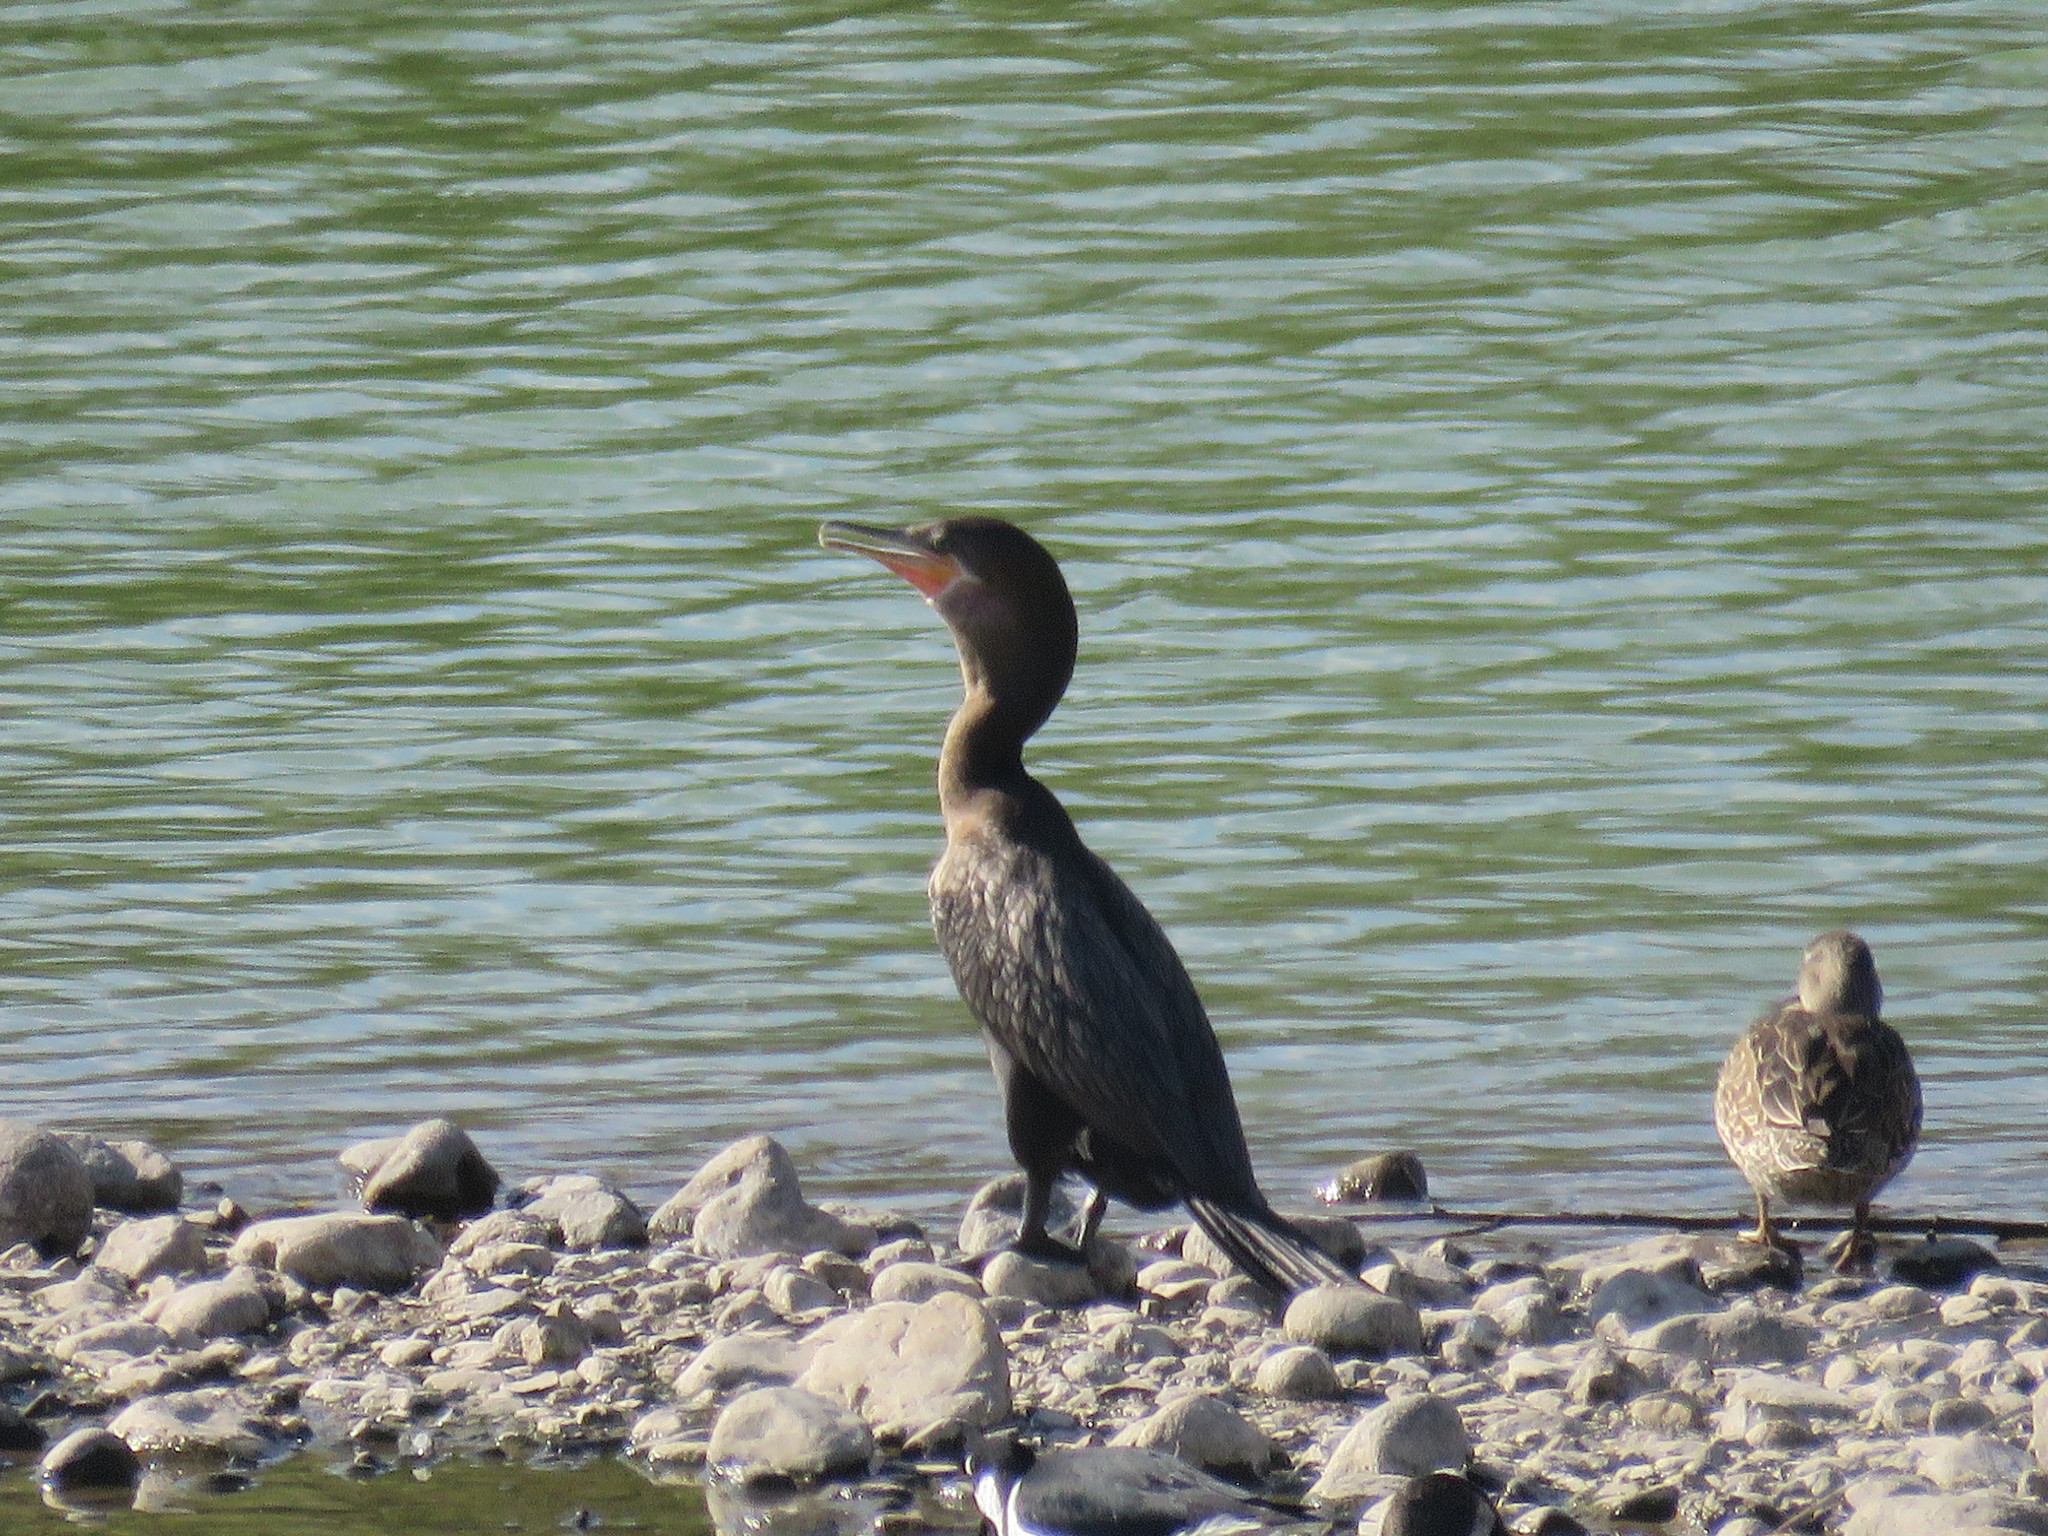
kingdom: Animalia
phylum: Chordata
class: Aves
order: Suliformes
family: Phalacrocoracidae
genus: Phalacrocorax
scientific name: Phalacrocorax brasilianus
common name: Neotropic cormorant
